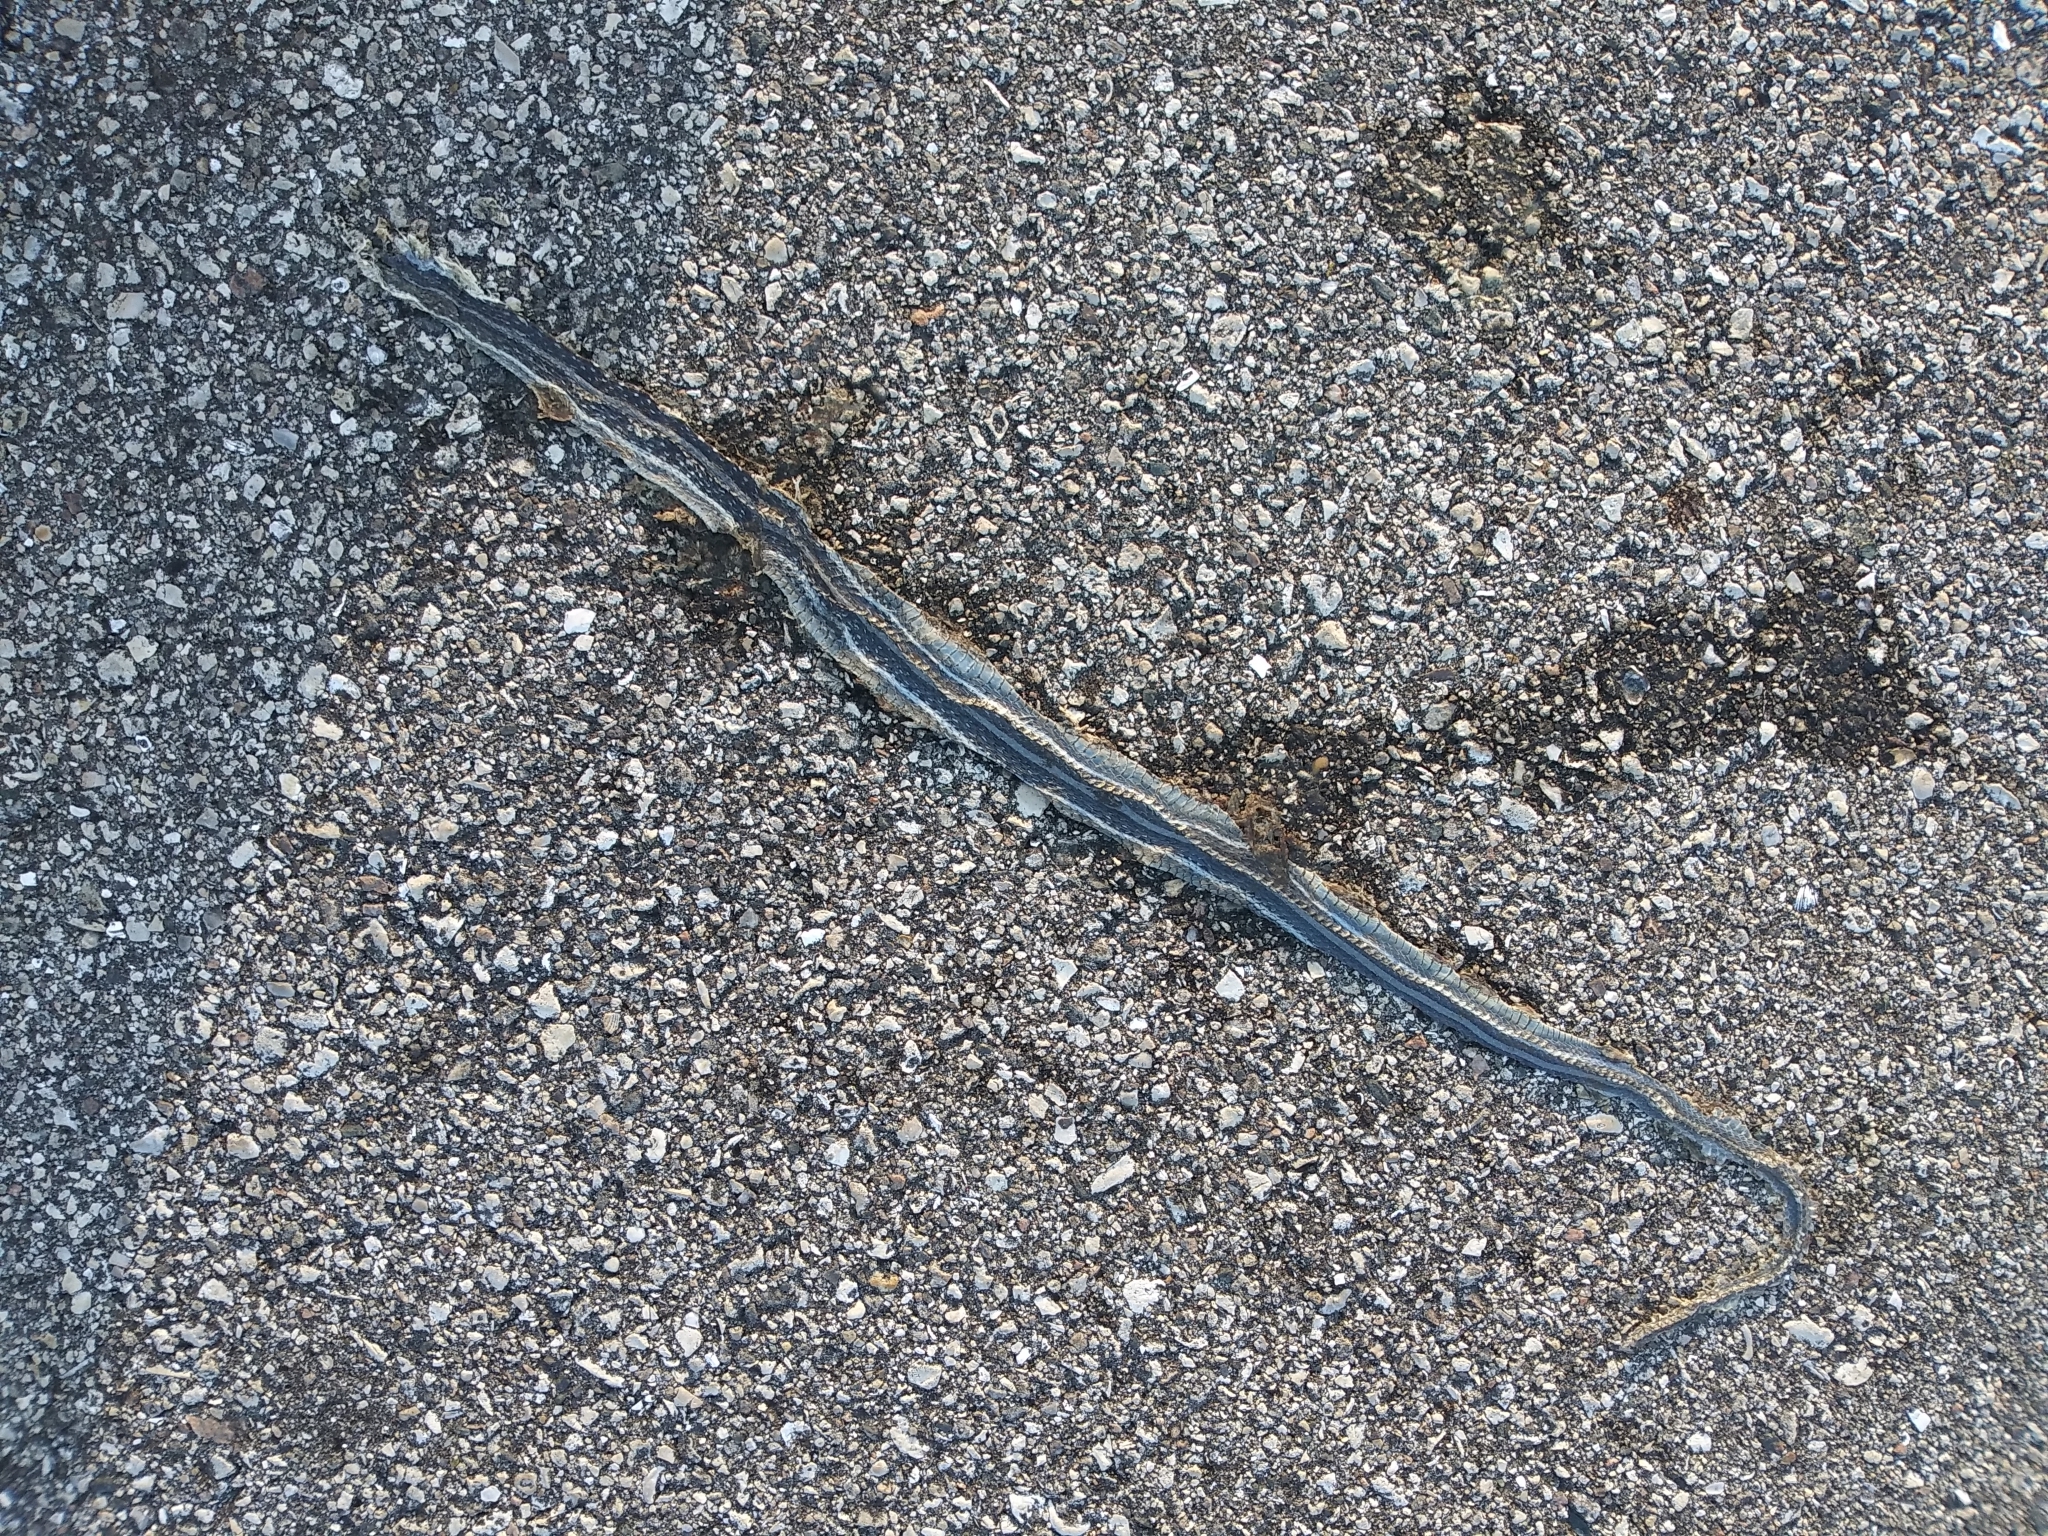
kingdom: Animalia
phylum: Chordata
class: Squamata
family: Colubridae
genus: Thamnophis
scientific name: Thamnophis saurita
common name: Eastern ribbonsnake
